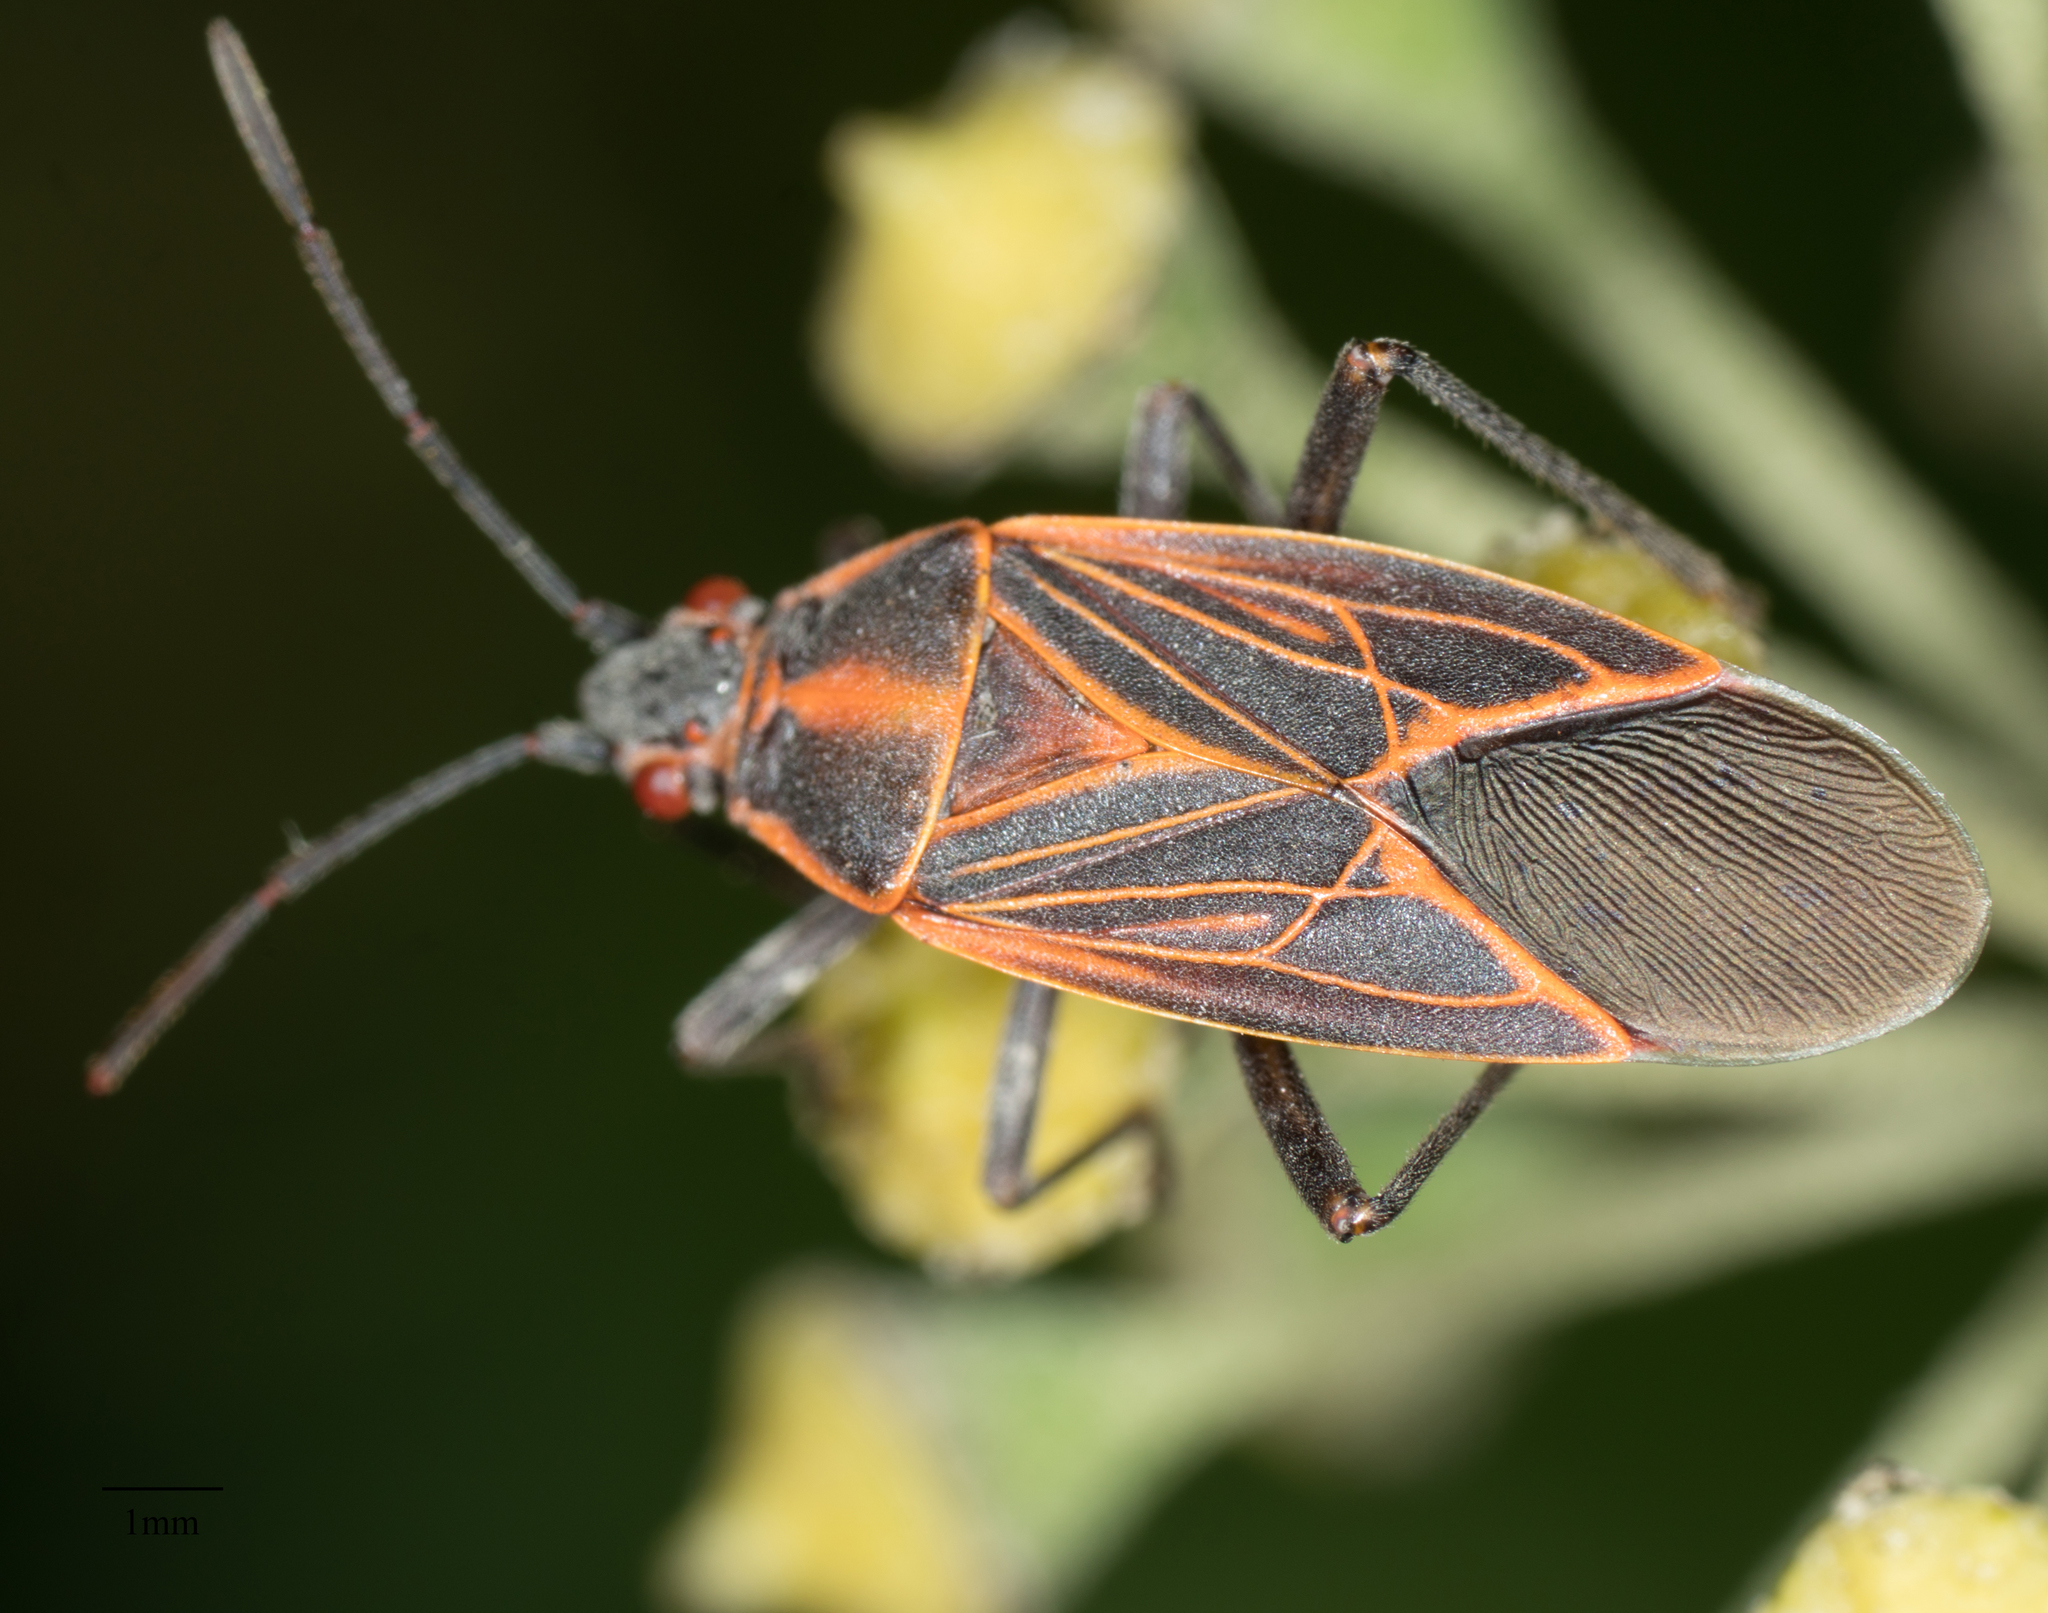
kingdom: Animalia
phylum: Arthropoda
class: Insecta
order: Hemiptera
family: Rhopalidae
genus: Boisea
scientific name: Boisea rubrolineata
